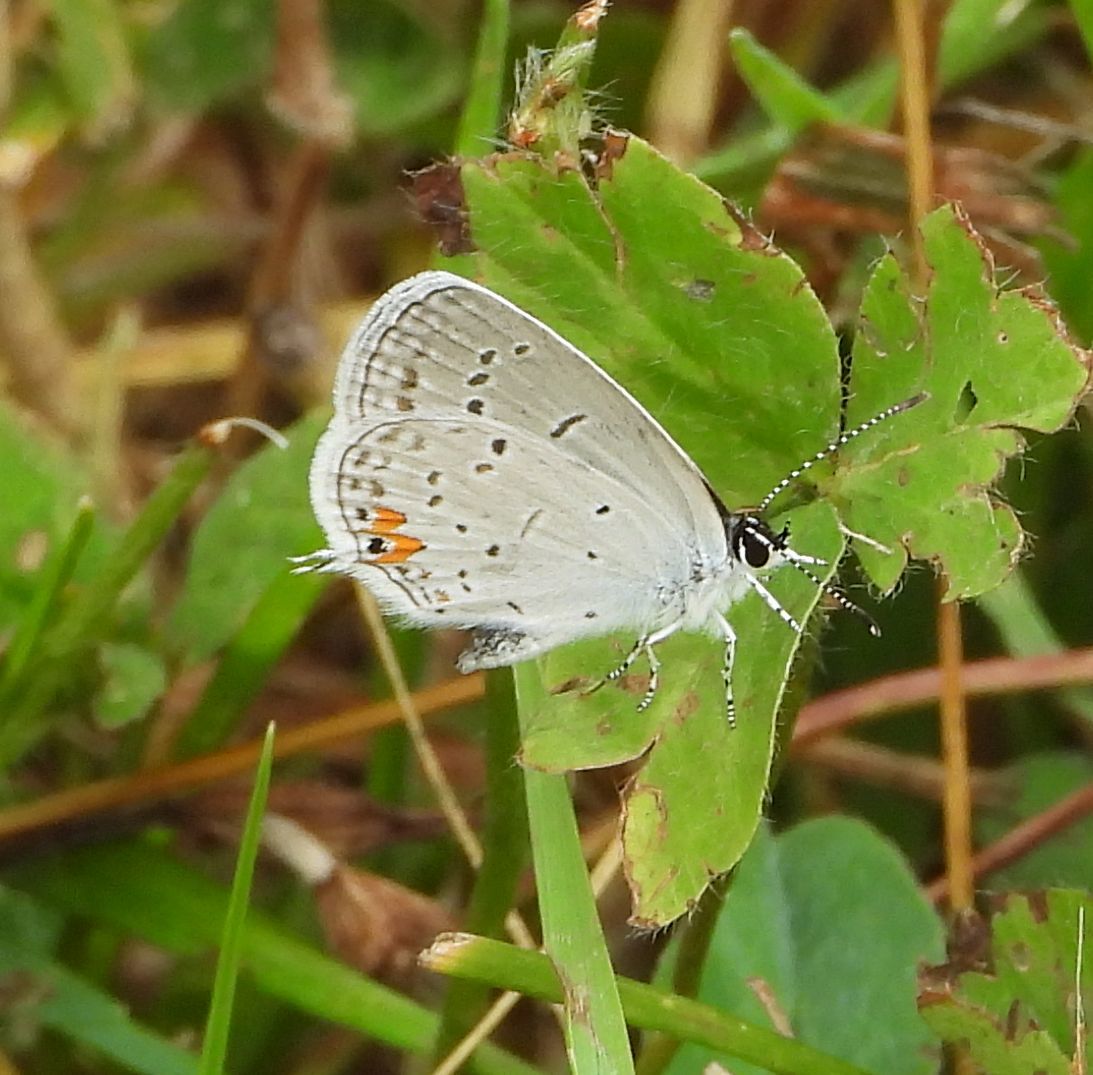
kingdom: Animalia
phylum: Arthropoda
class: Insecta
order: Lepidoptera
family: Lycaenidae
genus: Elkalyce
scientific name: Elkalyce comyntas
